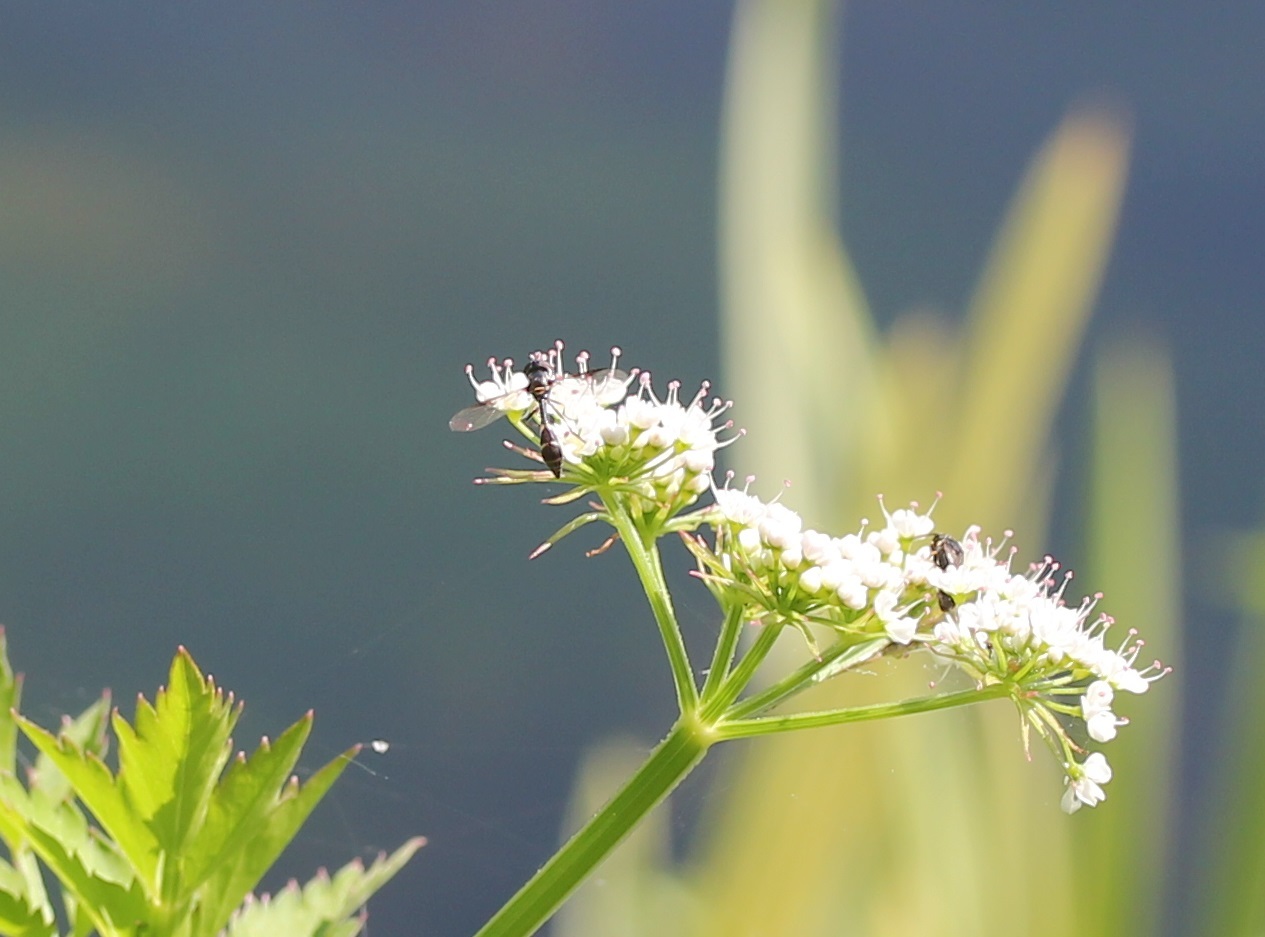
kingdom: Animalia
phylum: Arthropoda
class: Insecta
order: Diptera
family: Syrphidae
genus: Dioprosopa
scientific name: Dioprosopa clavatus
